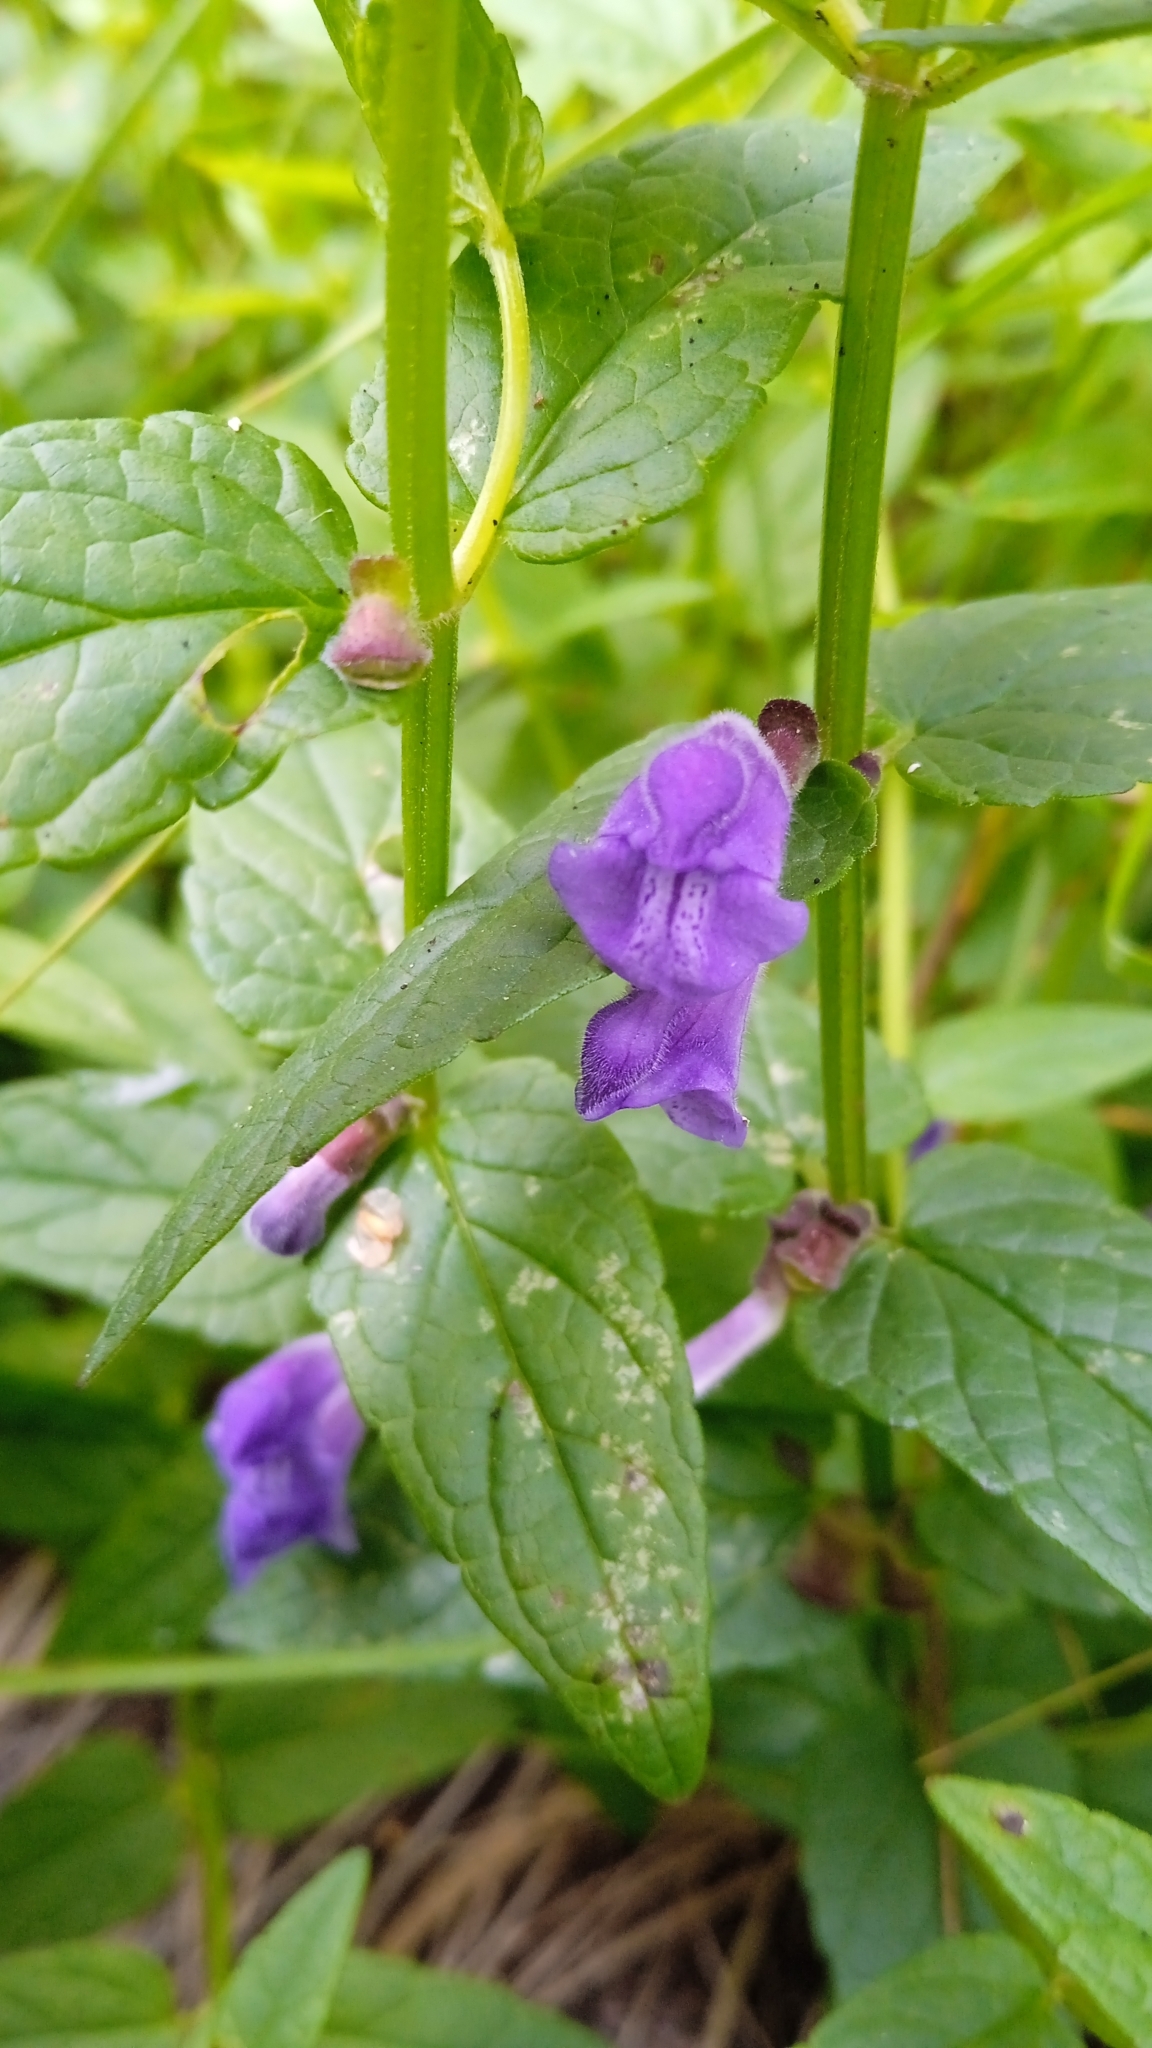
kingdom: Plantae
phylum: Tracheophyta
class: Magnoliopsida
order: Lamiales
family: Lamiaceae
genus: Scutellaria
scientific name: Scutellaria galericulata
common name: Skullcap
